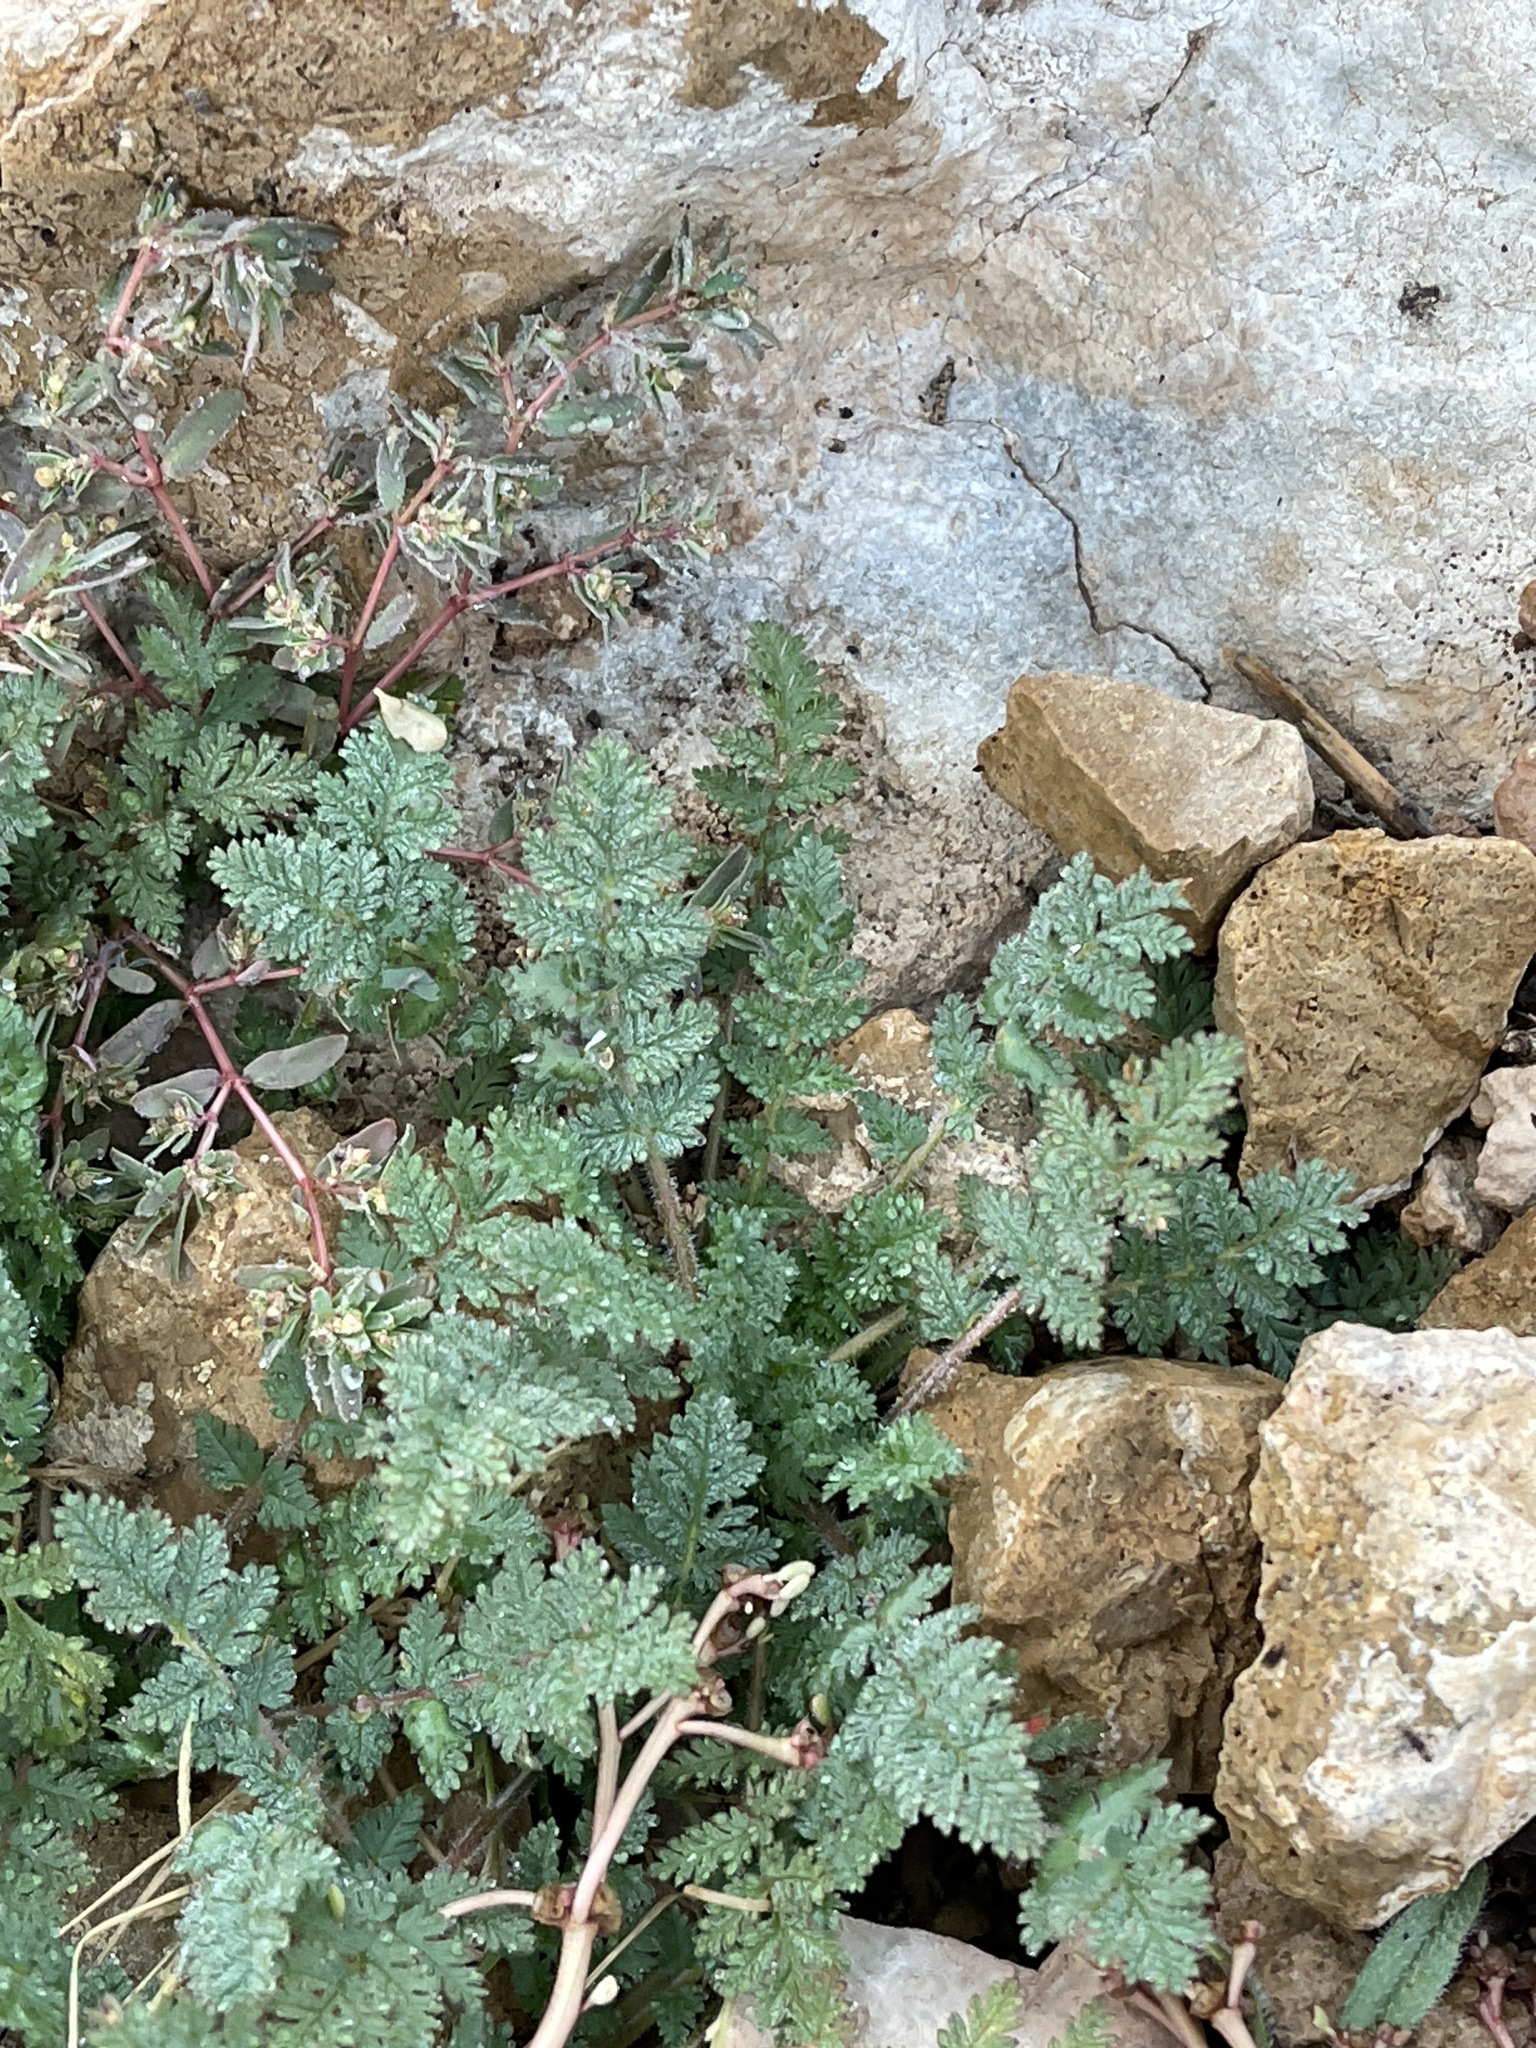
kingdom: Plantae
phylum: Tracheophyta
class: Magnoliopsida
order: Geraniales
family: Geraniaceae
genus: Erodium
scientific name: Erodium cicutarium
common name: Common stork's-bill
